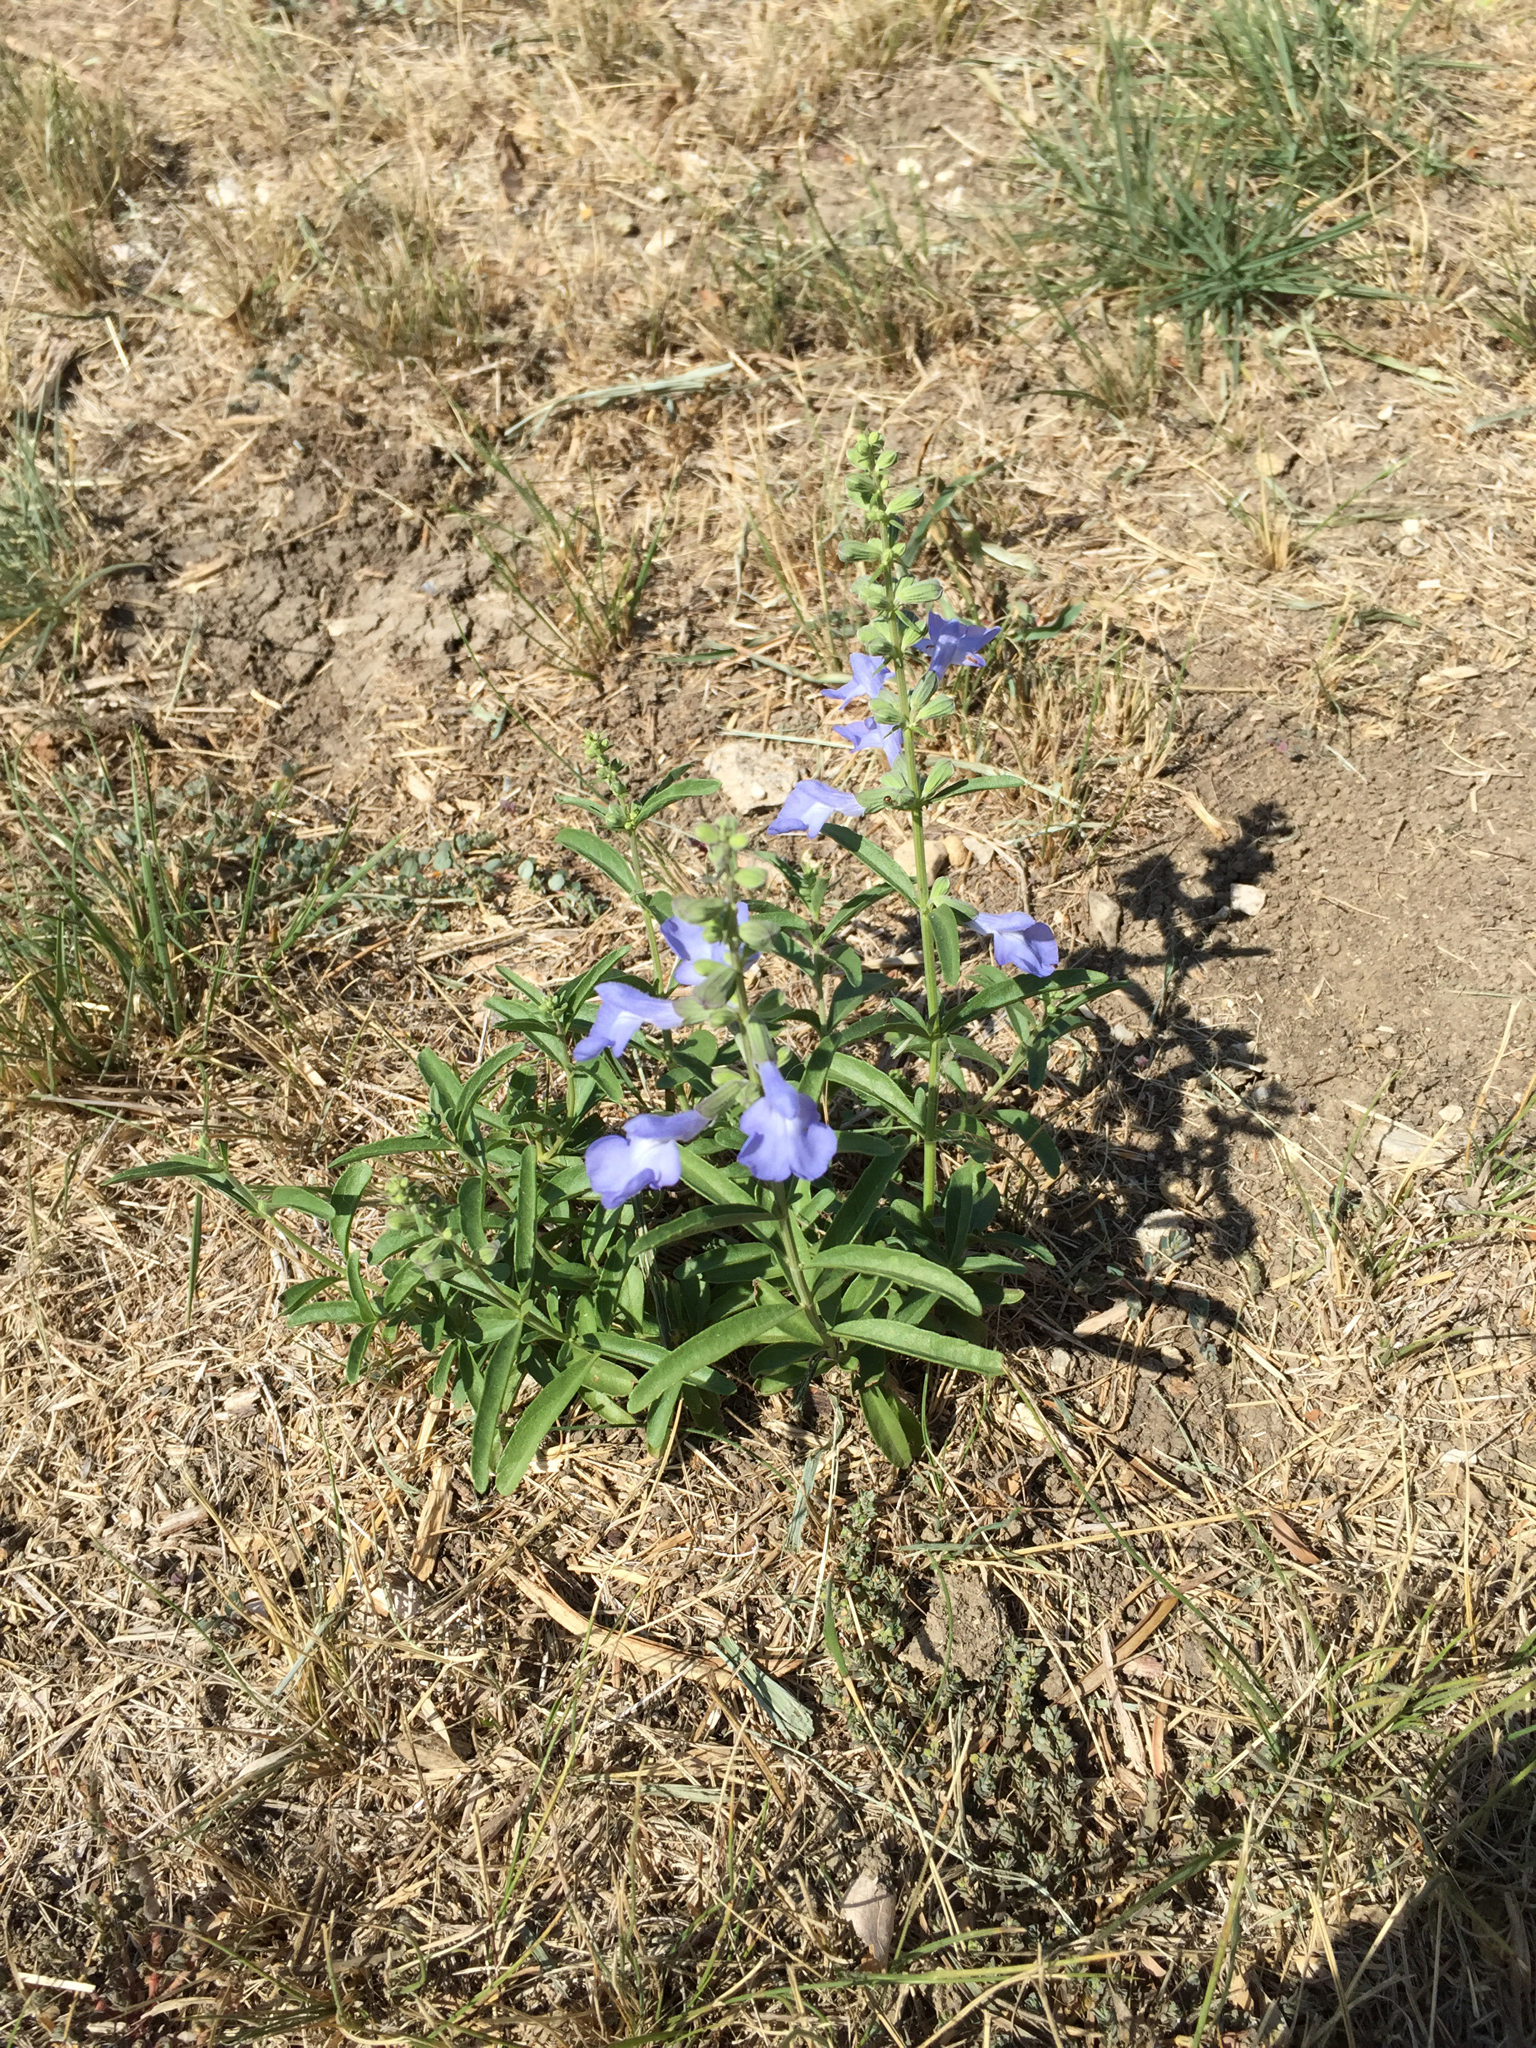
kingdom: Plantae
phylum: Tracheophyta
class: Magnoliopsida
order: Lamiales
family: Lamiaceae
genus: Salvia
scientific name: Salvia azurea
